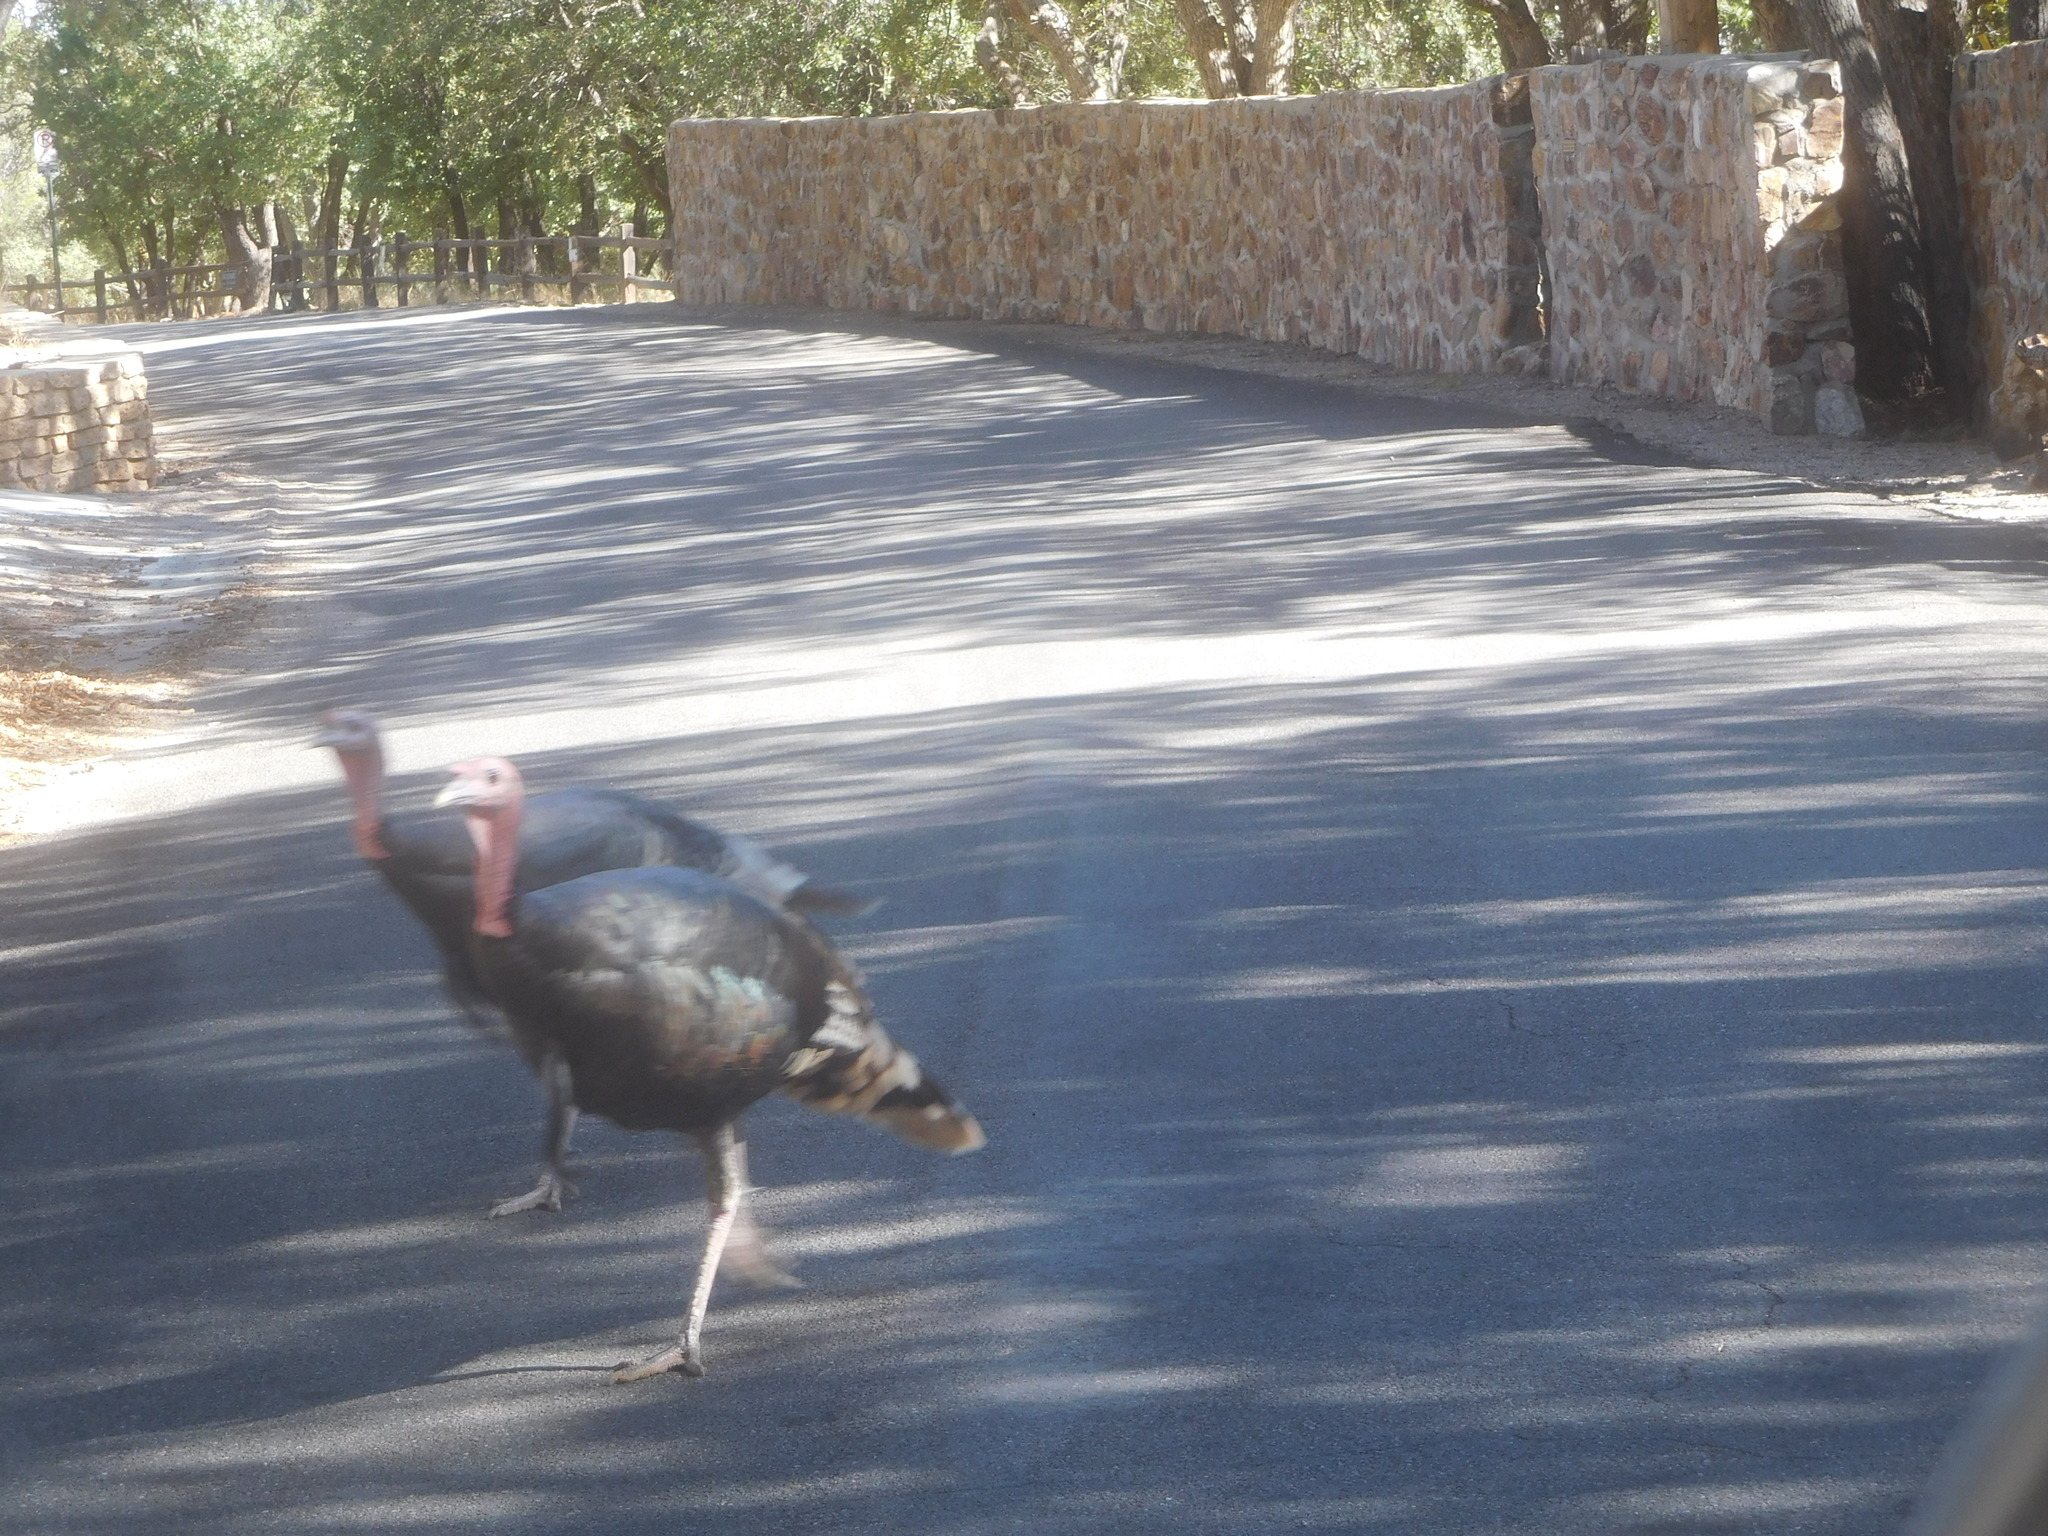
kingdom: Animalia
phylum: Chordata
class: Aves
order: Galliformes
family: Phasianidae
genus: Meleagris
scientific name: Meleagris gallopavo
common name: Wild turkey
